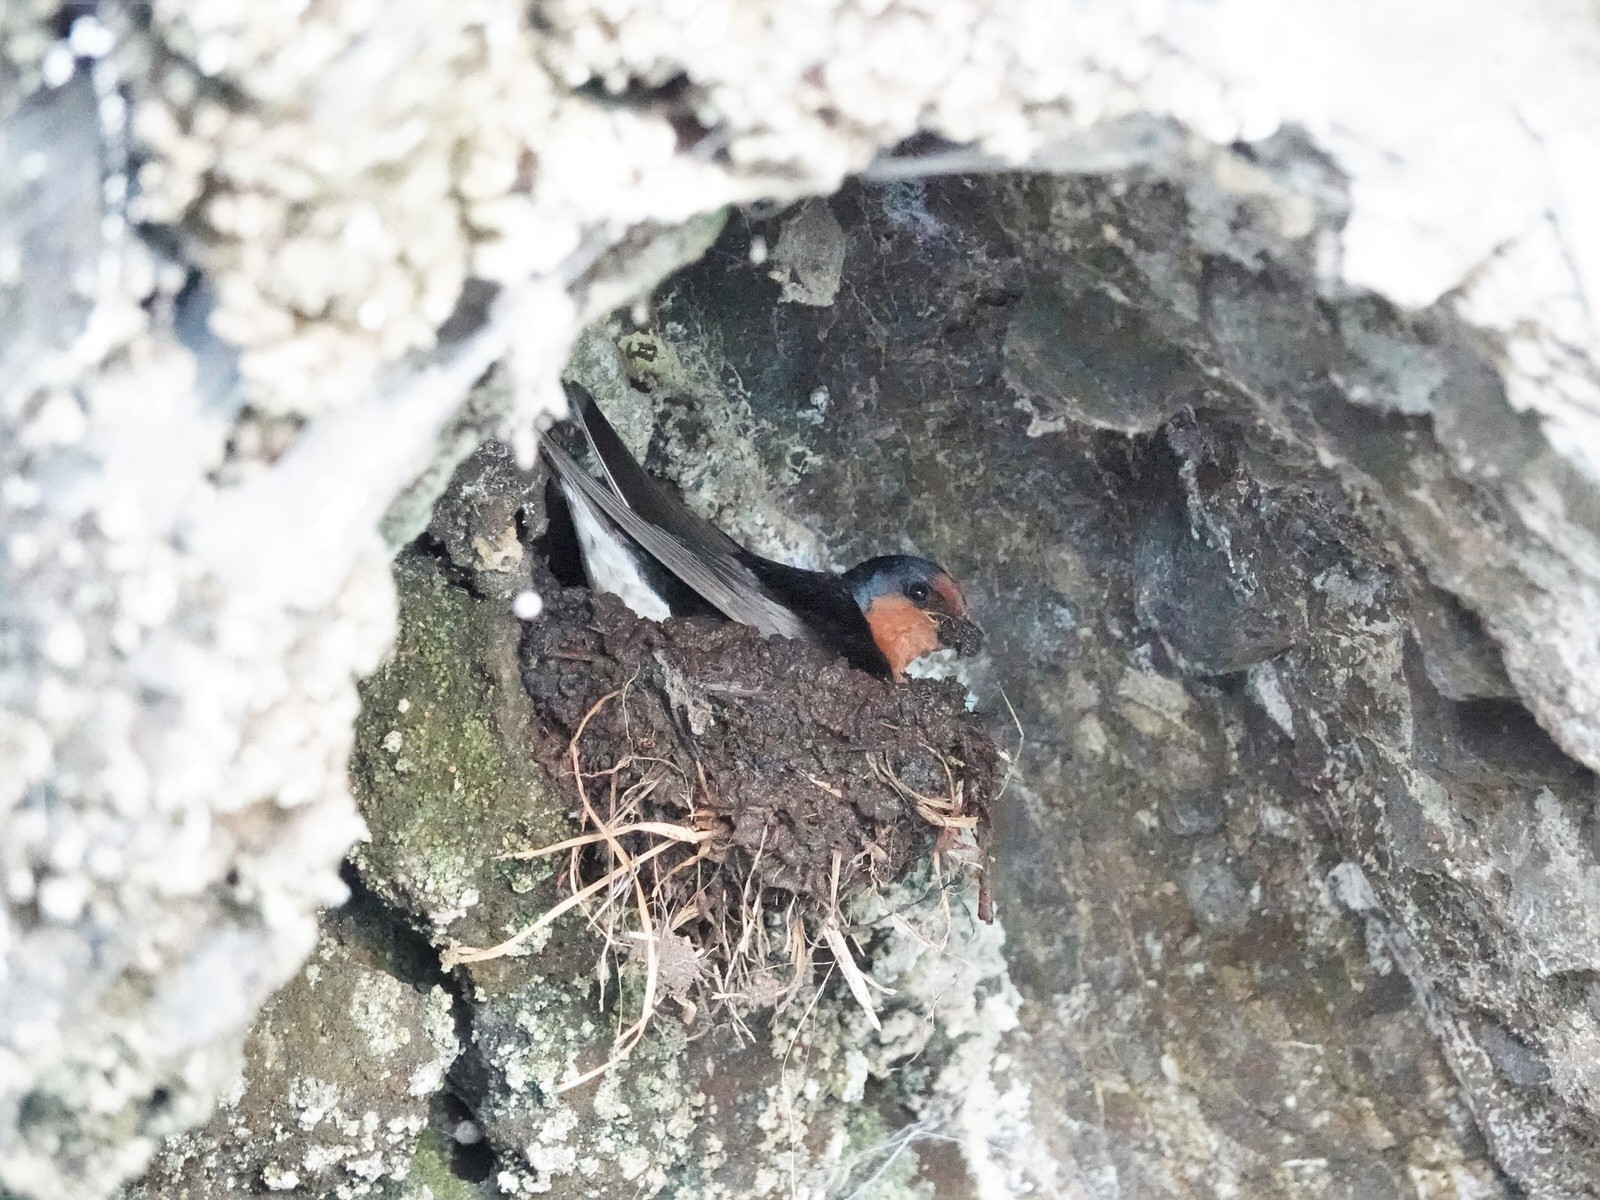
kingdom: Animalia
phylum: Chordata
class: Aves
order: Passeriformes
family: Hirundinidae
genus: Hirundo
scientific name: Hirundo neoxena
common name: Welcome swallow
